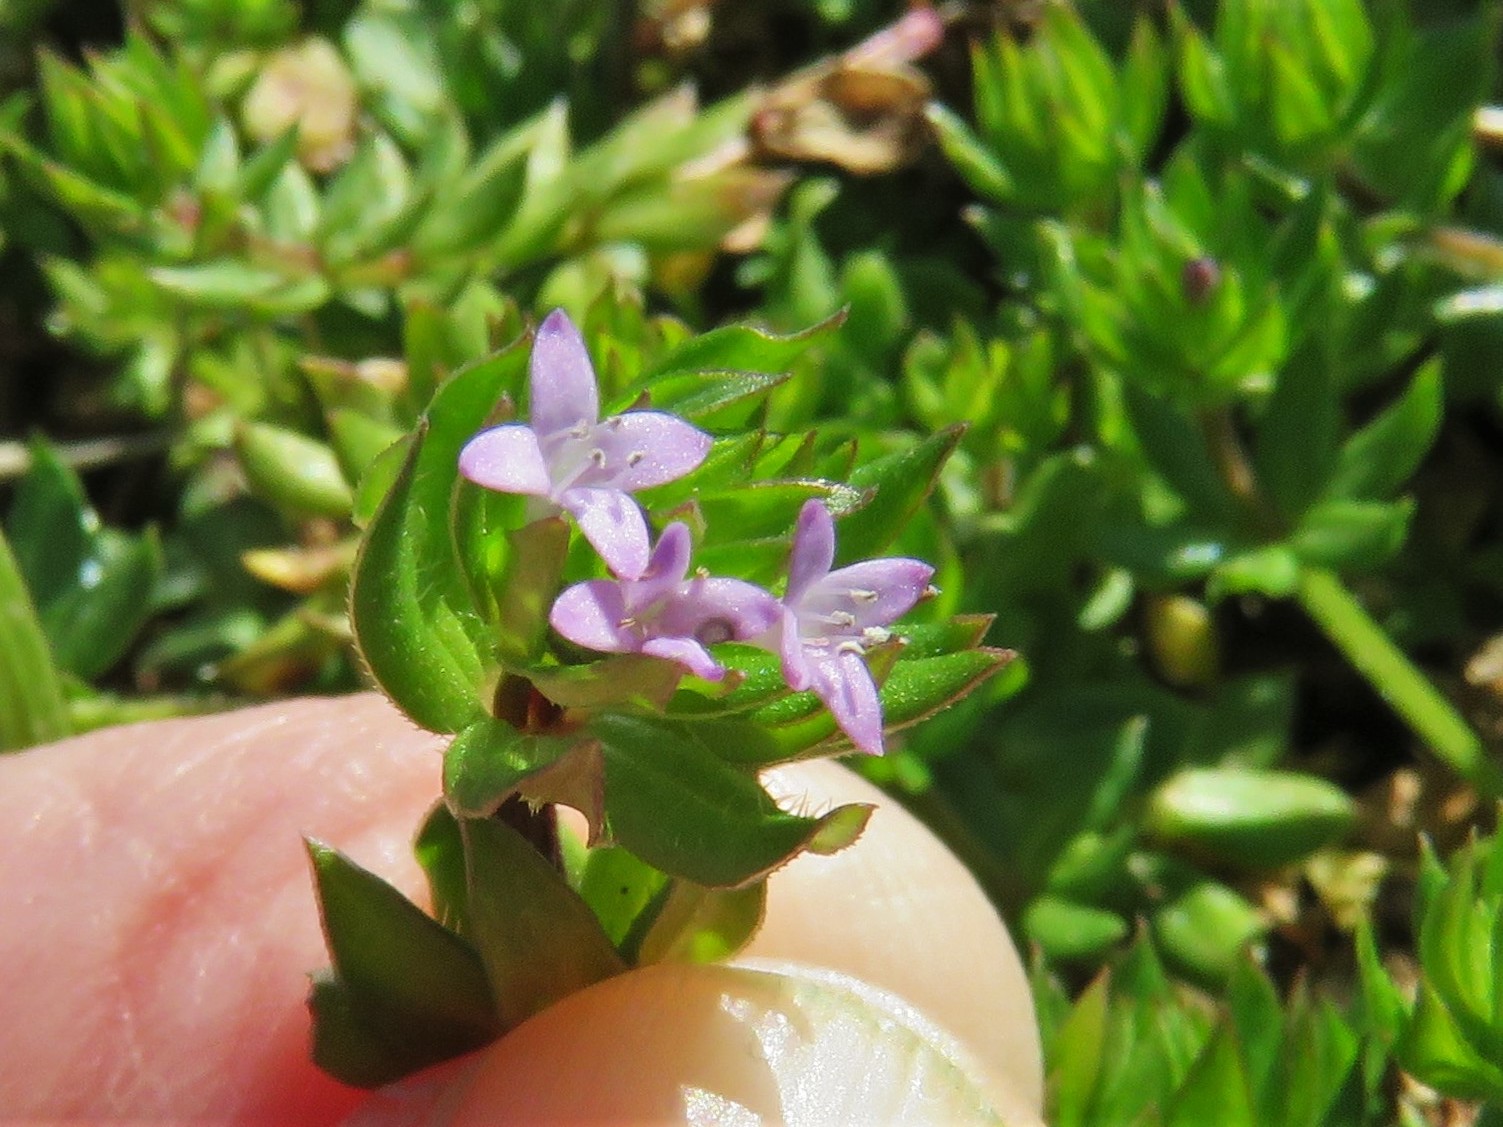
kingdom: Plantae
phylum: Tracheophyta
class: Magnoliopsida
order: Gentianales
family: Rubiaceae
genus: Sherardia
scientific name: Sherardia arvensis
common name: Field madder
